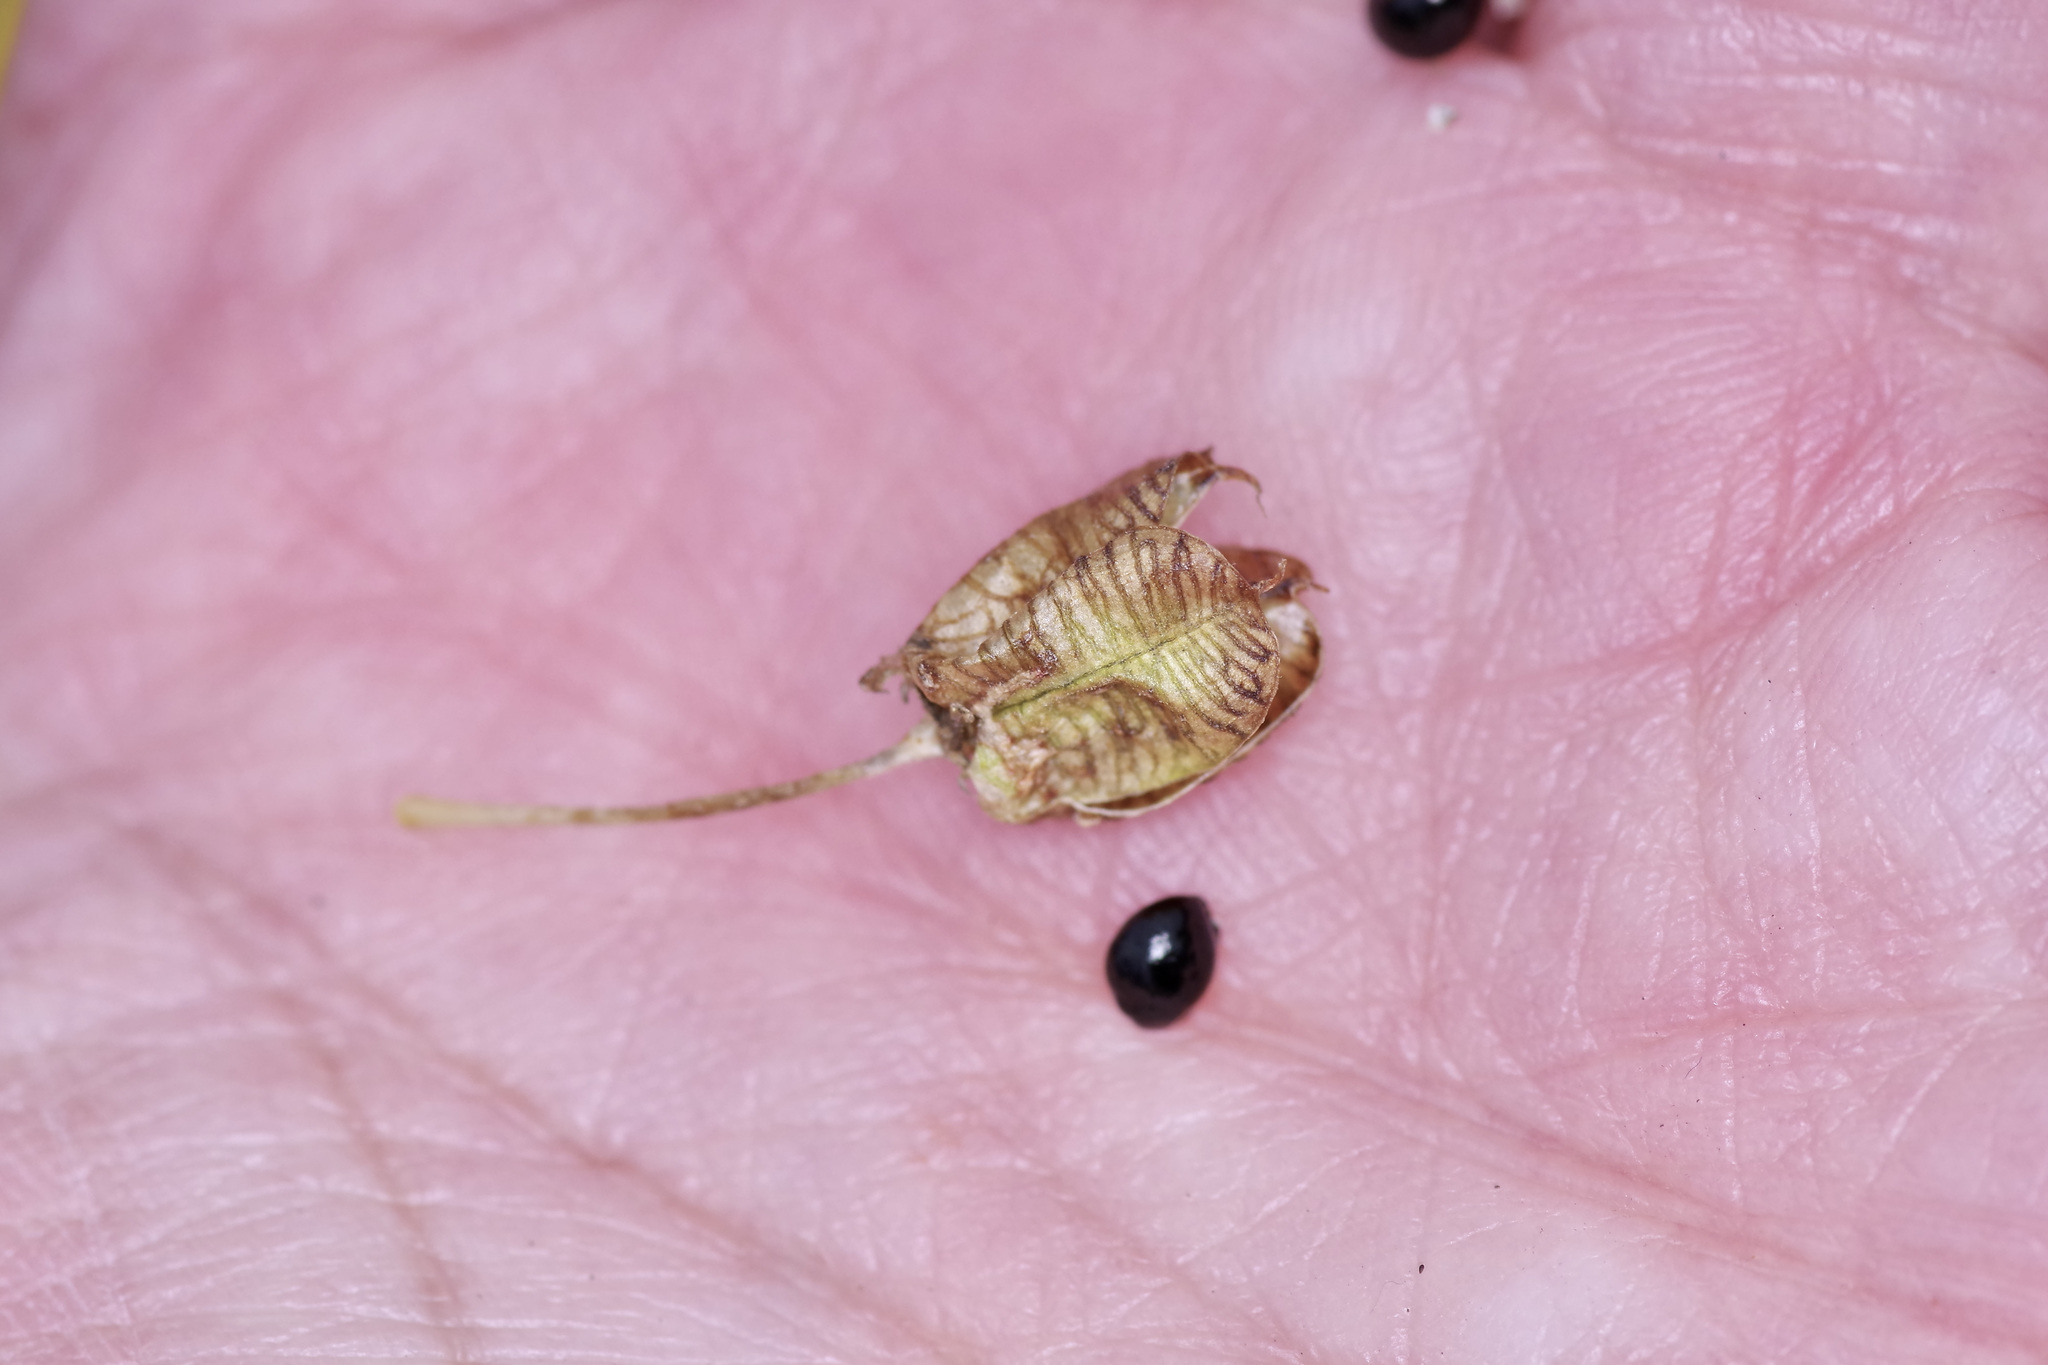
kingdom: Plantae
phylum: Tracheophyta
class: Liliopsida
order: Asparagales
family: Asparagaceae
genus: Camassia
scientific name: Camassia scilloides
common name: Wild hyacinth
